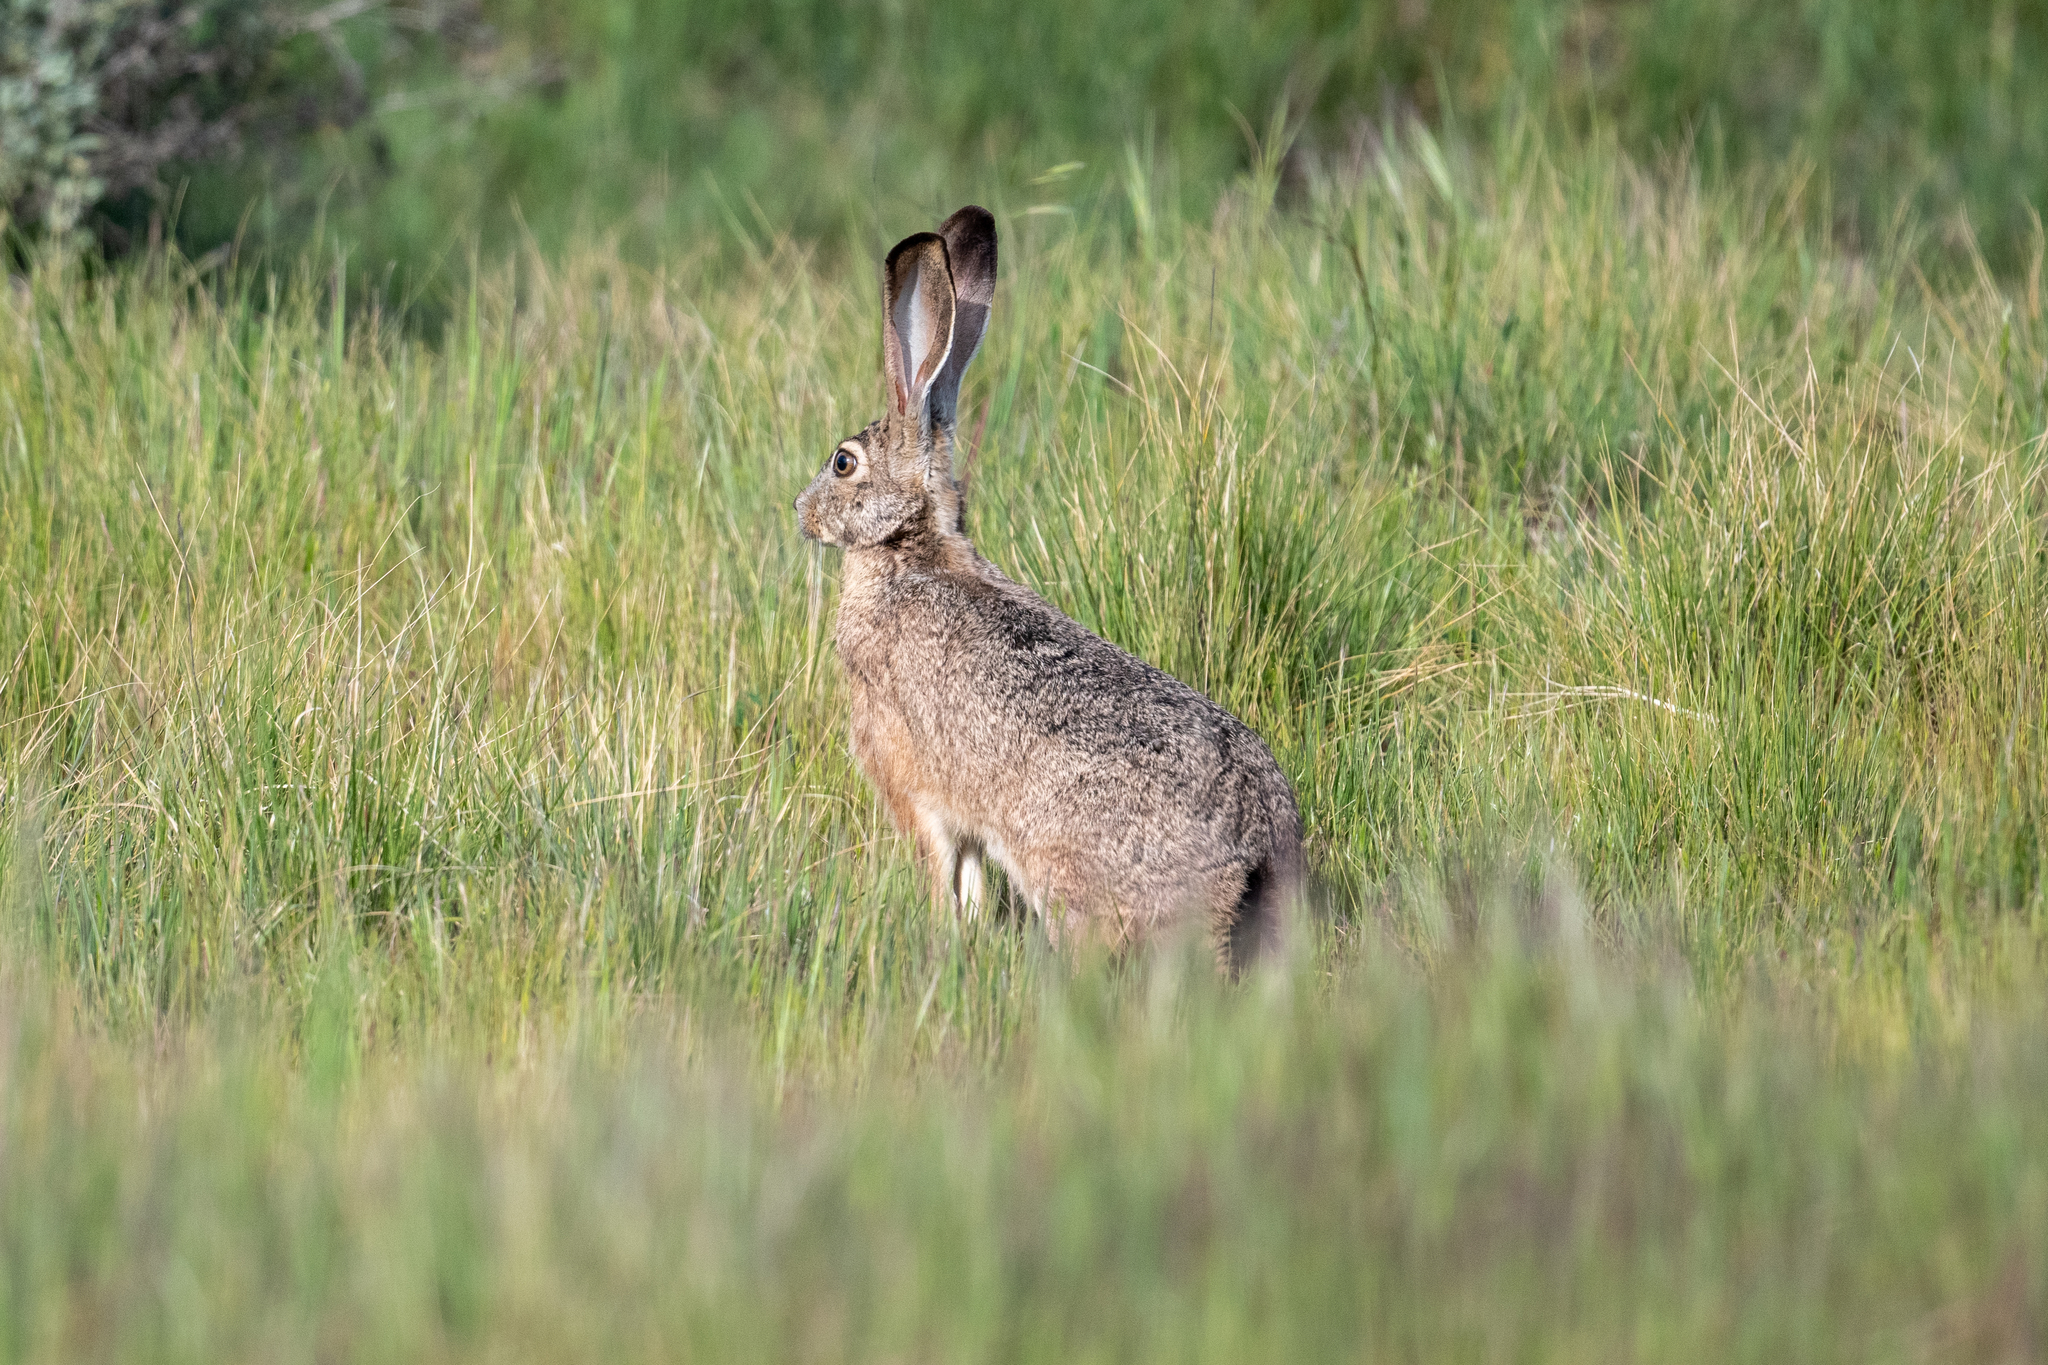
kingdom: Animalia
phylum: Chordata
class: Mammalia
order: Lagomorpha
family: Leporidae
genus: Lepus
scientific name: Lepus californicus
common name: Black-tailed jackrabbit
